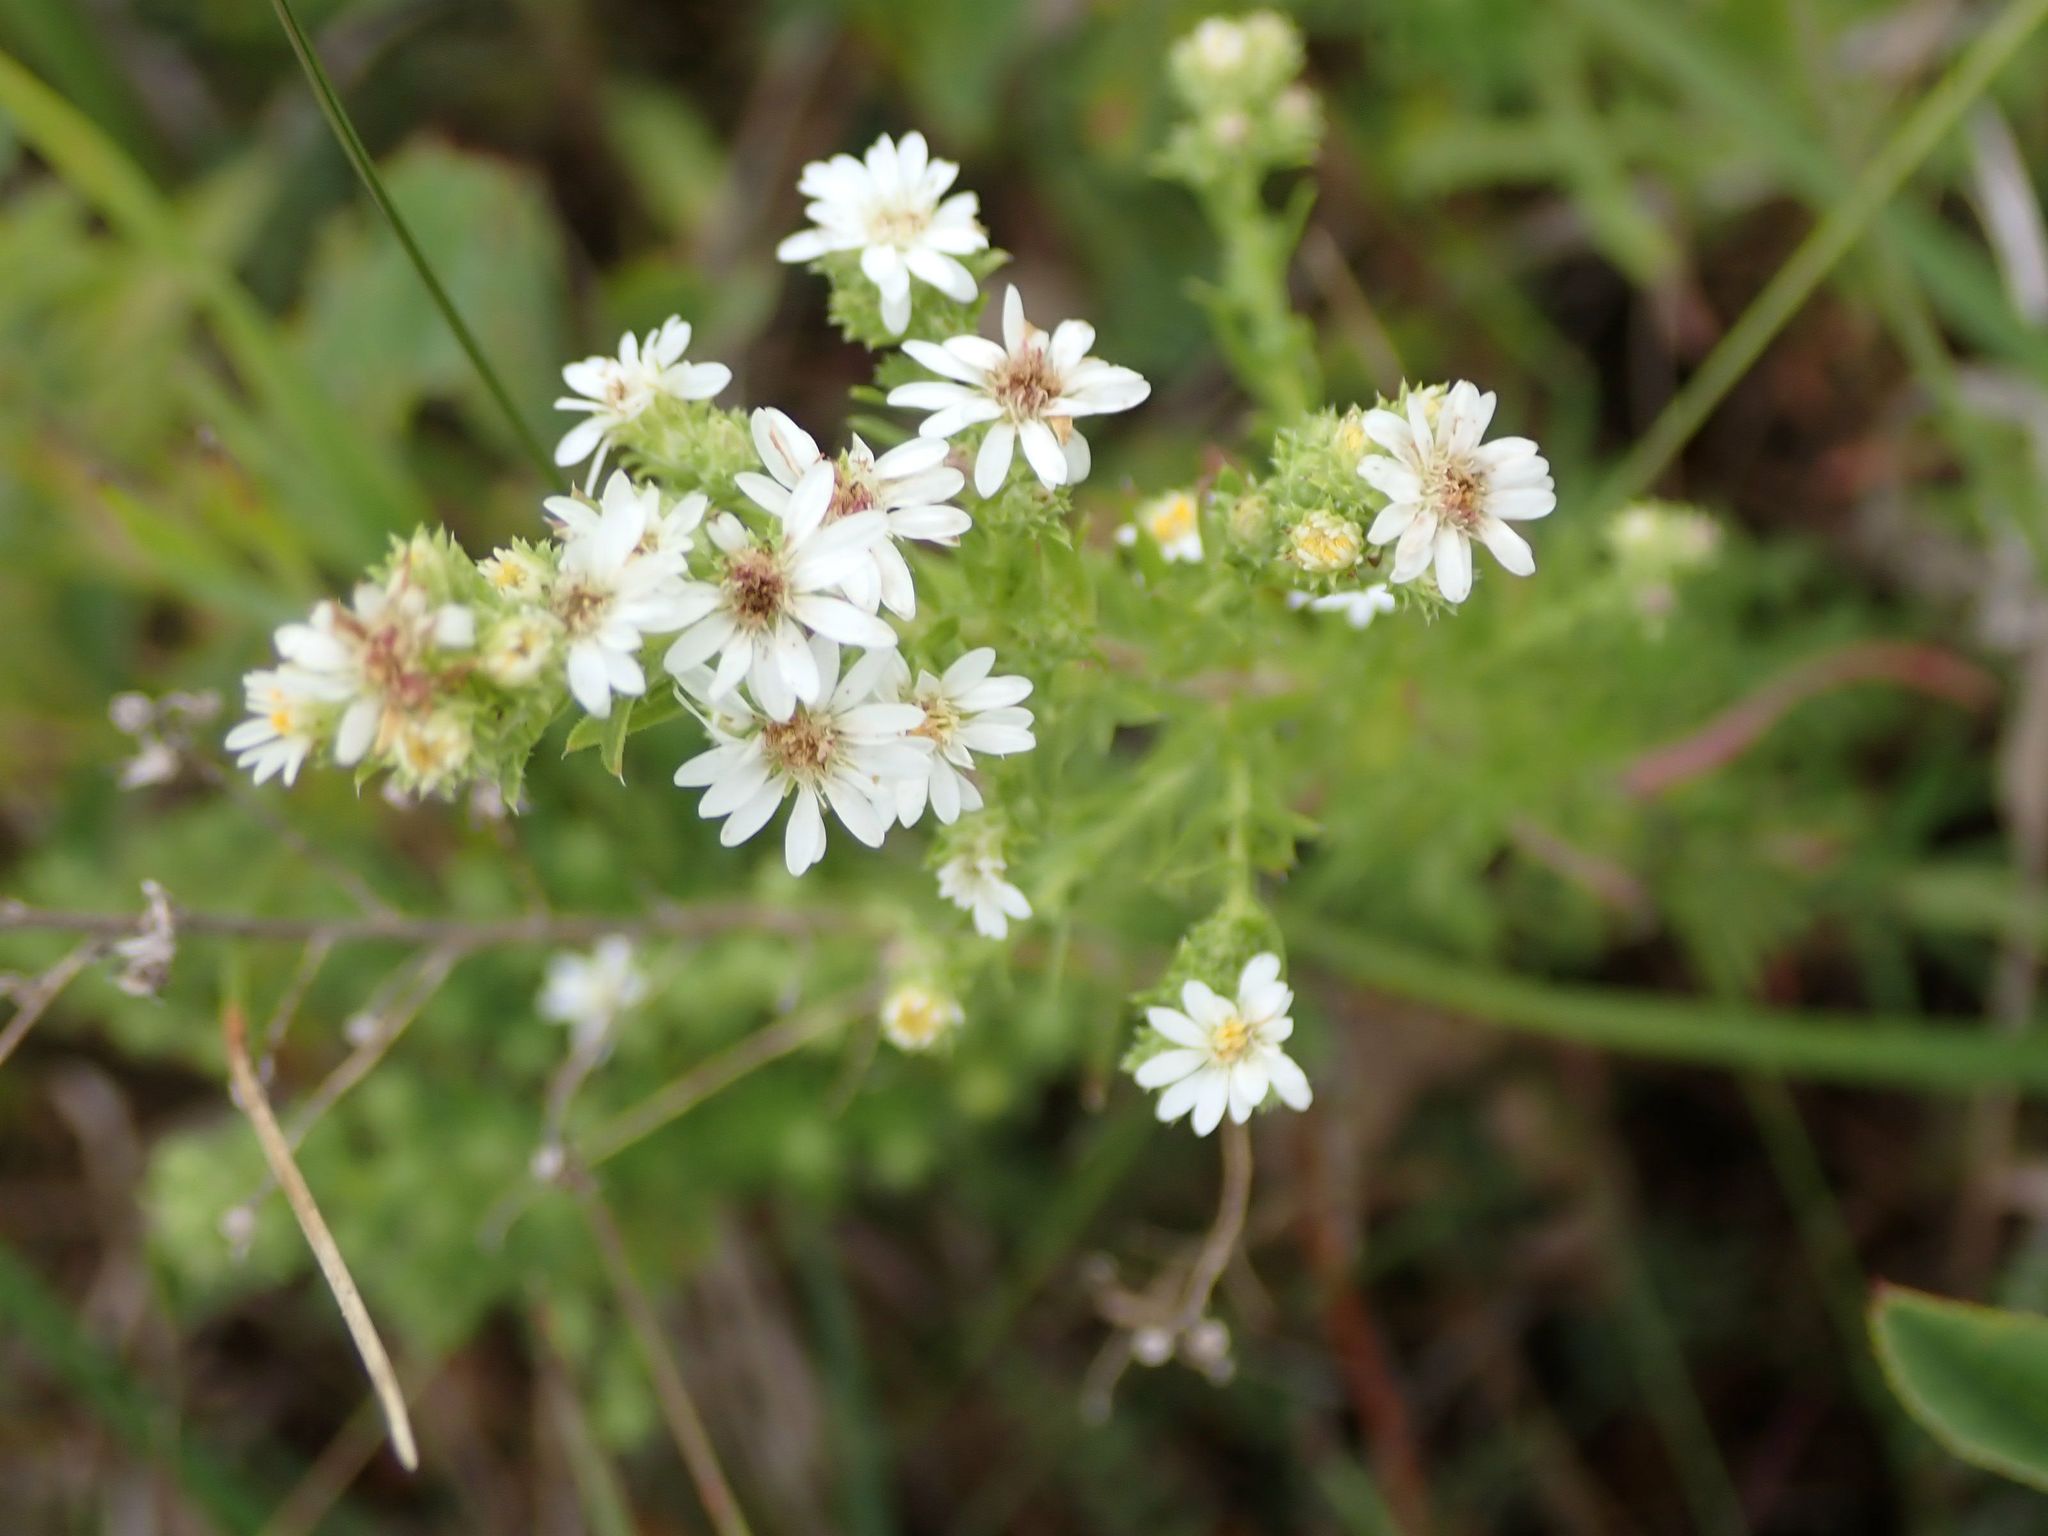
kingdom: Plantae
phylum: Tracheophyta
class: Magnoliopsida
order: Asterales
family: Asteraceae
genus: Symphyotrichum
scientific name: Symphyotrichum ericoides
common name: Heath aster
